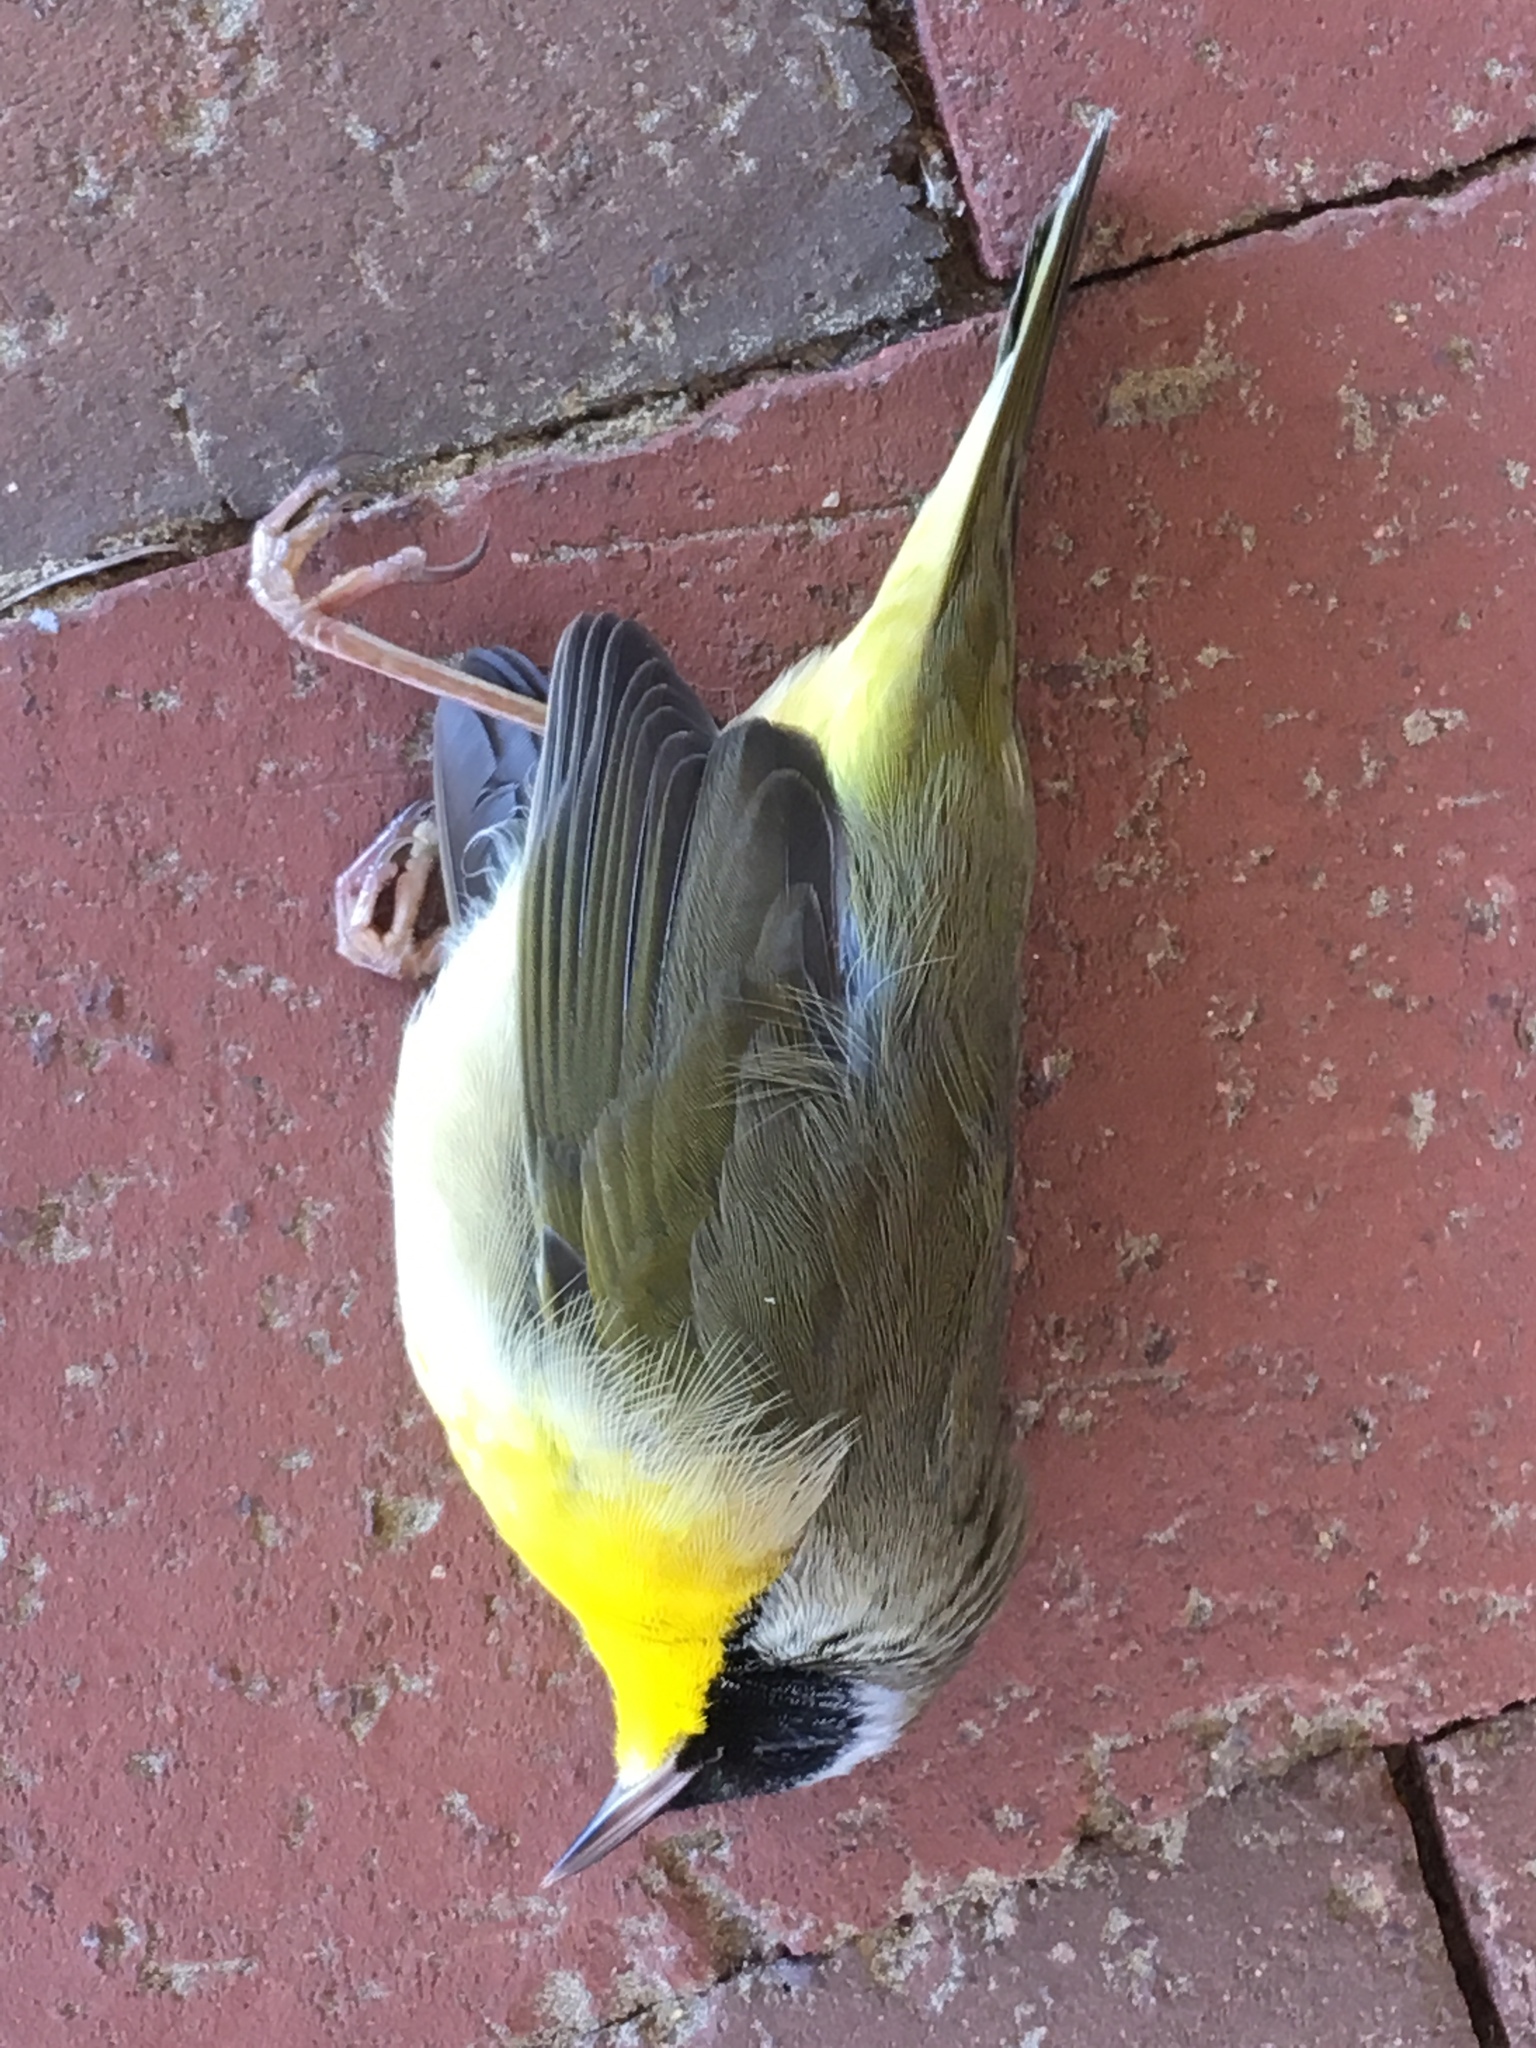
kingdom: Animalia
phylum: Chordata
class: Aves
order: Passeriformes
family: Parulidae
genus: Geothlypis
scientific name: Geothlypis trichas
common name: Common yellowthroat
